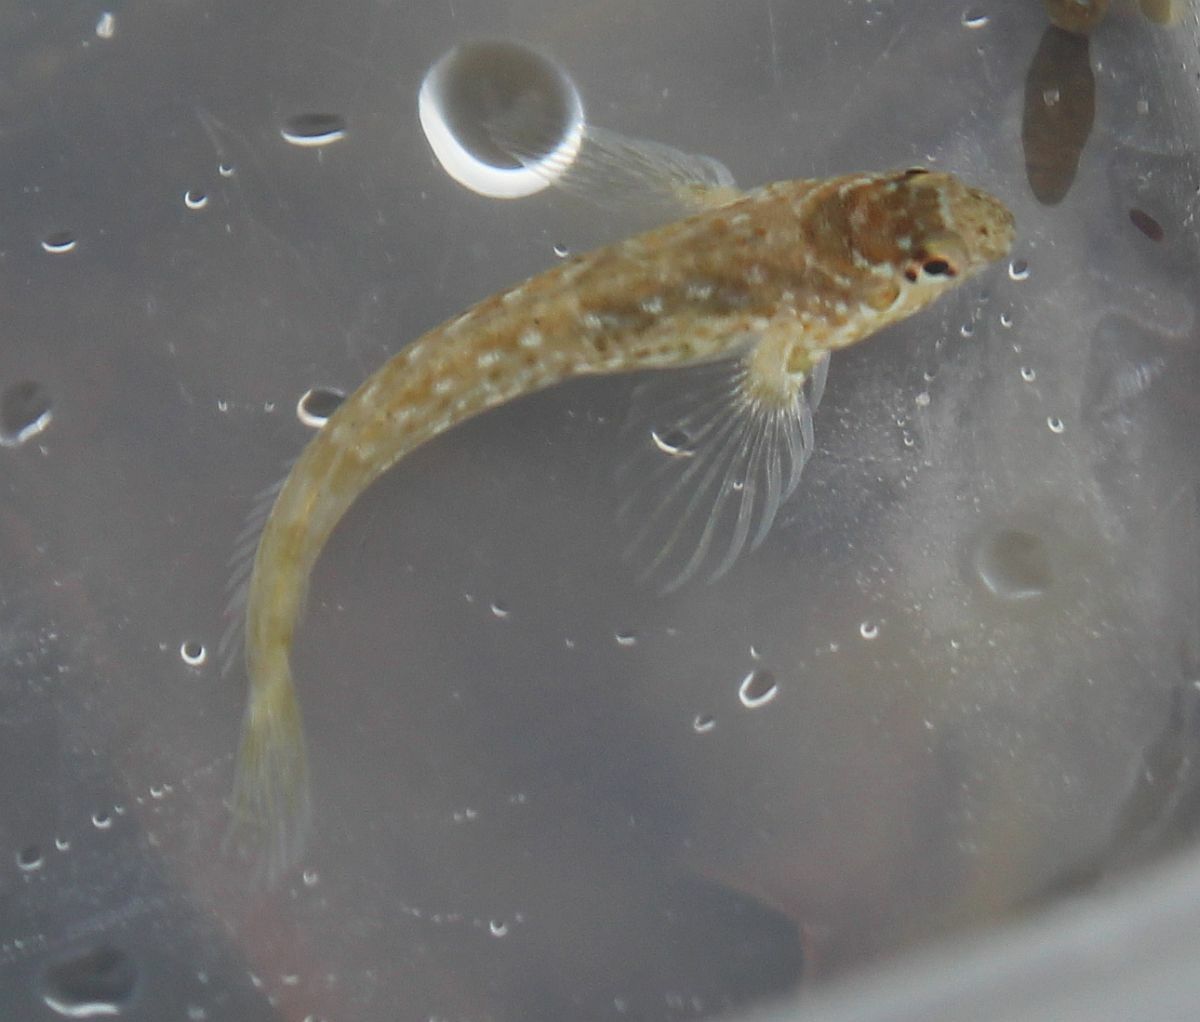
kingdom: Animalia
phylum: Chordata
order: Perciformes
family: Blenniidae
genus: Lipophrys
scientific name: Lipophrys pholis
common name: Shanny
